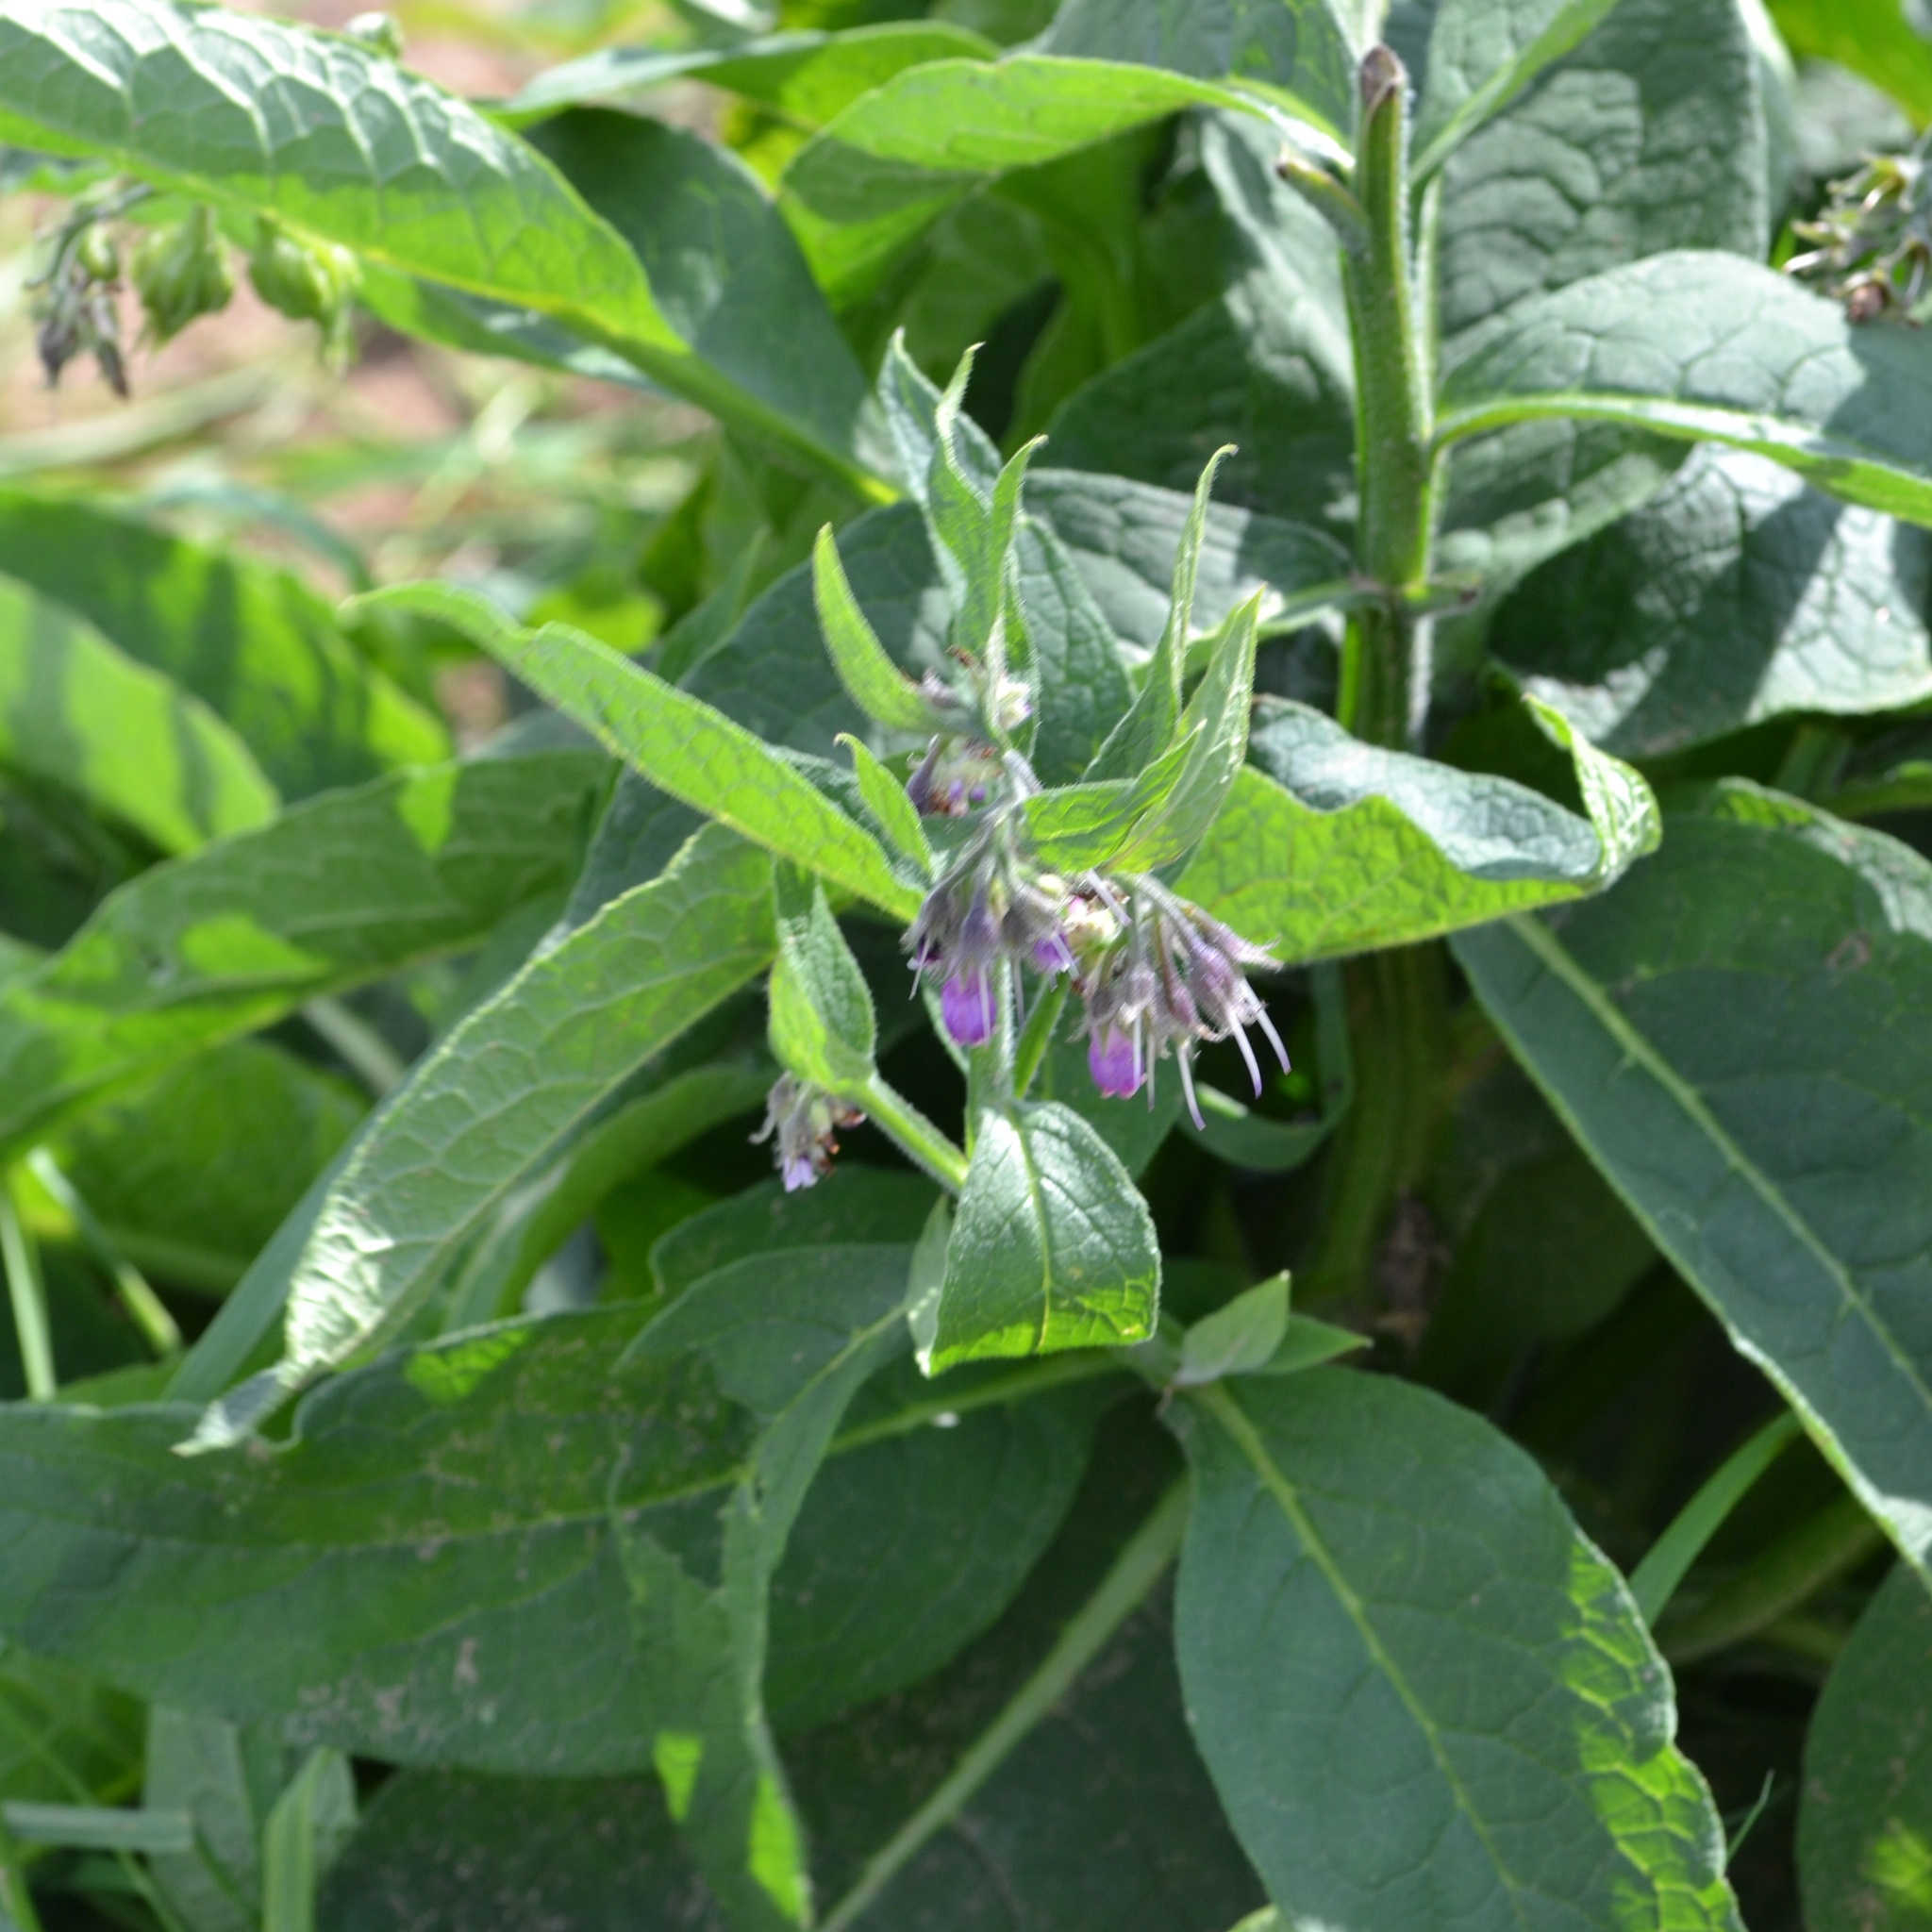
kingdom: Plantae
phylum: Tracheophyta
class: Magnoliopsida
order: Boraginales
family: Boraginaceae
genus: Symphytum
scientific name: Symphytum officinale
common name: Common comfrey
